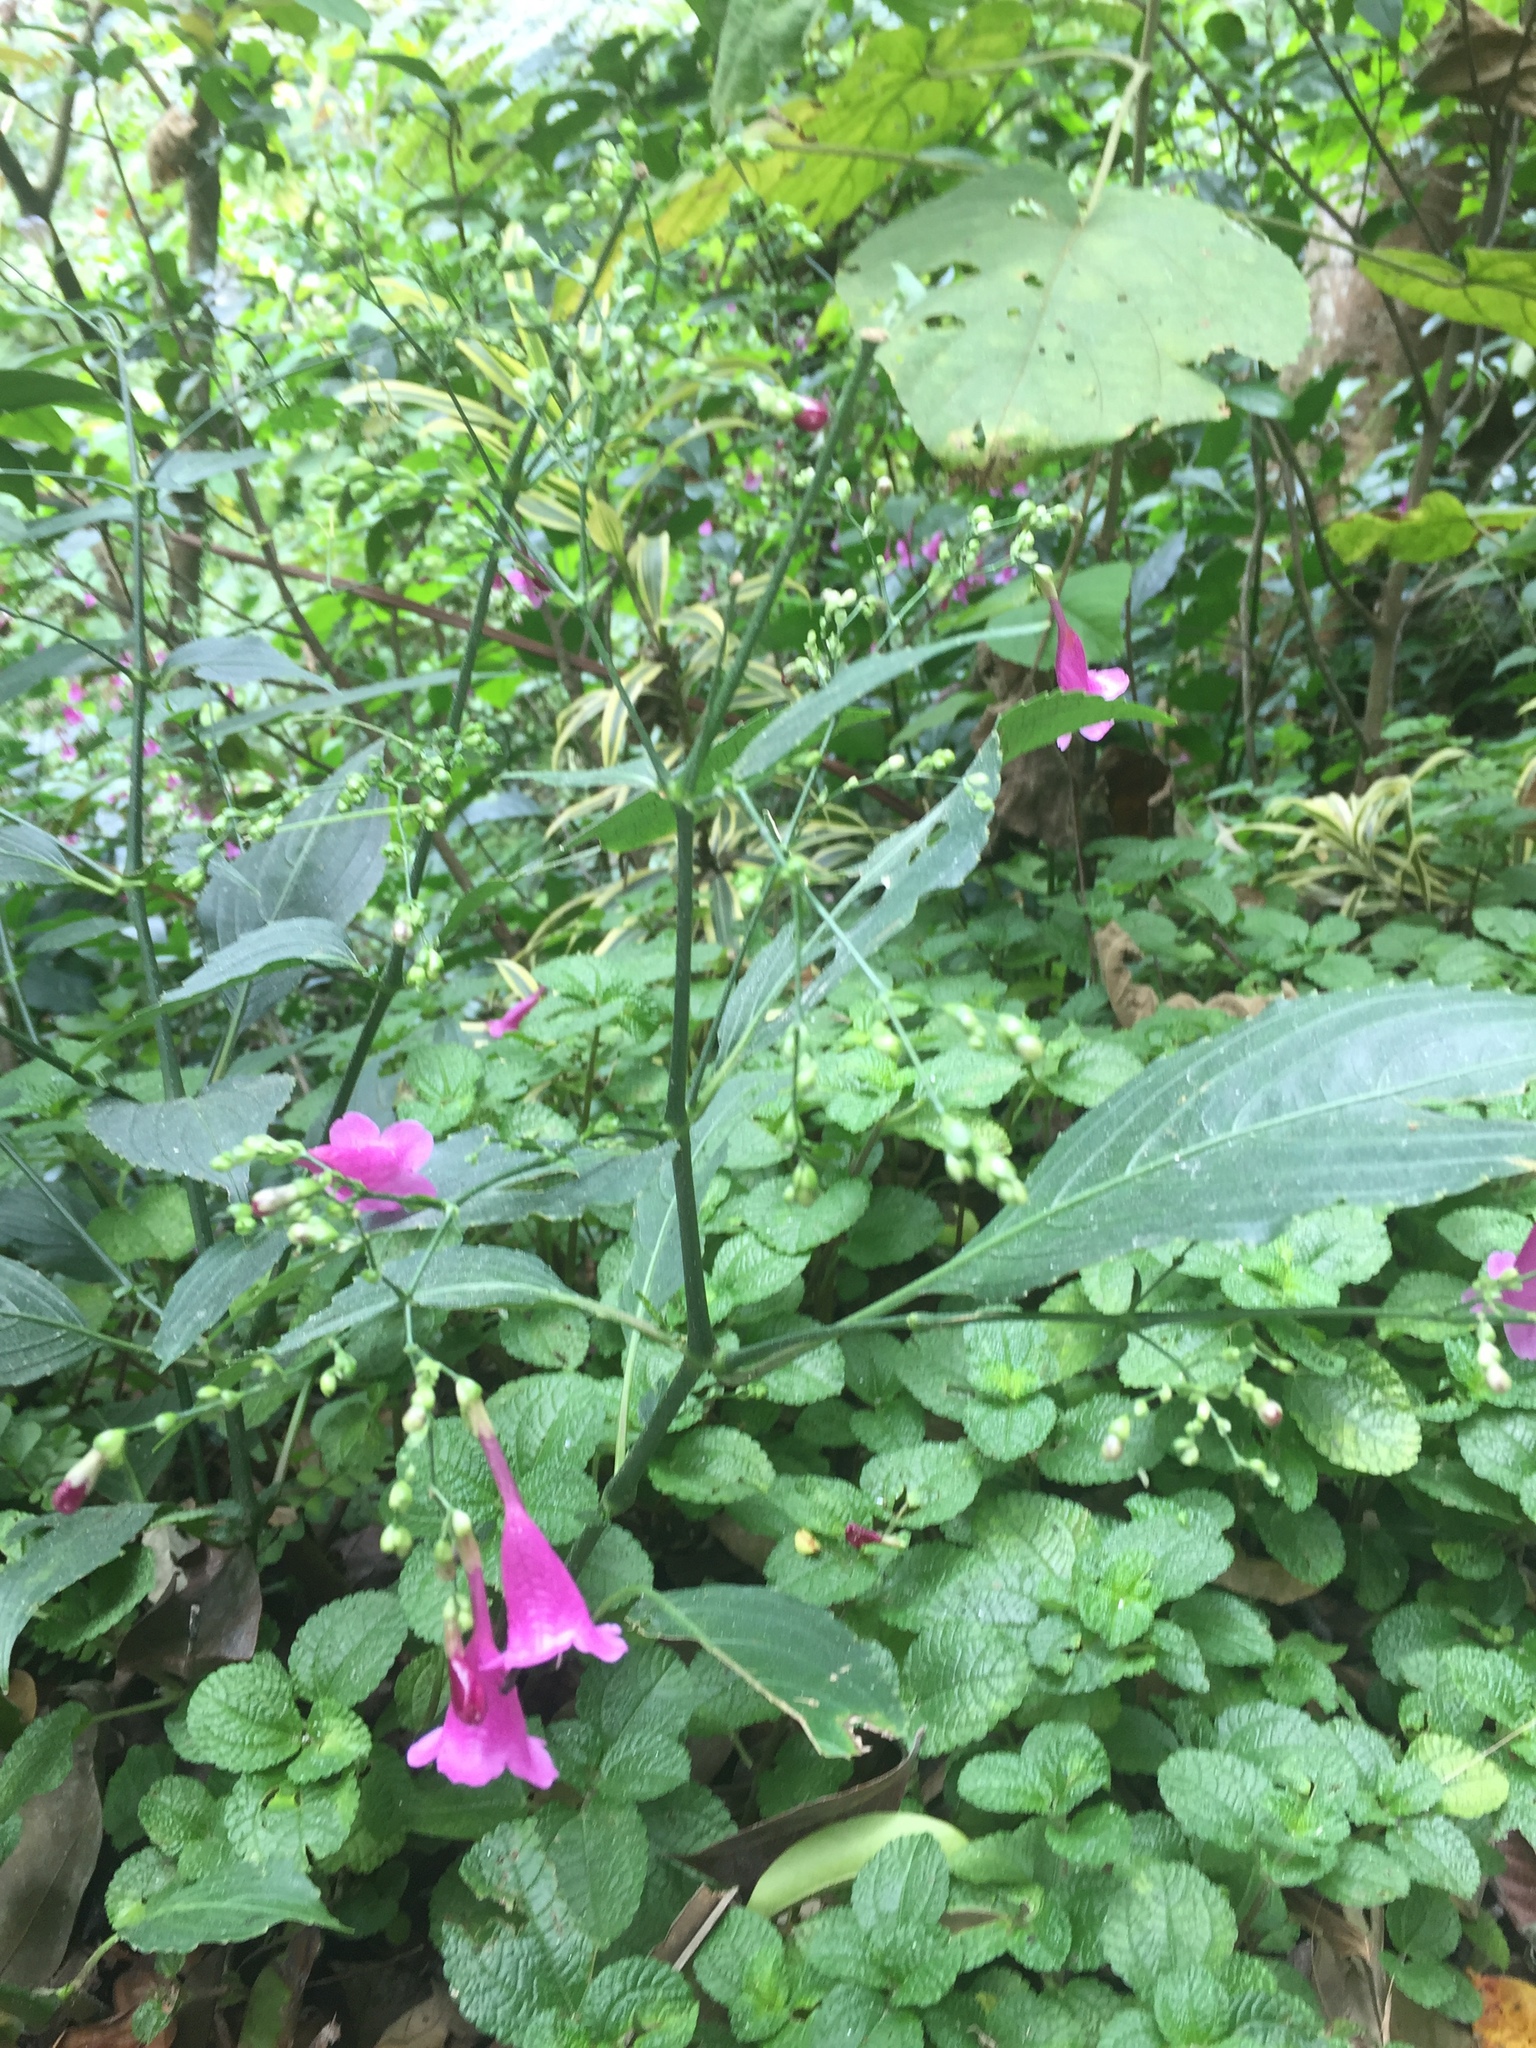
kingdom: Plantae
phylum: Tracheophyta
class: Magnoliopsida
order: Lamiales
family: Acanthaceae
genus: Strobilanthes
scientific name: Strobilanthes hamiltoniana
